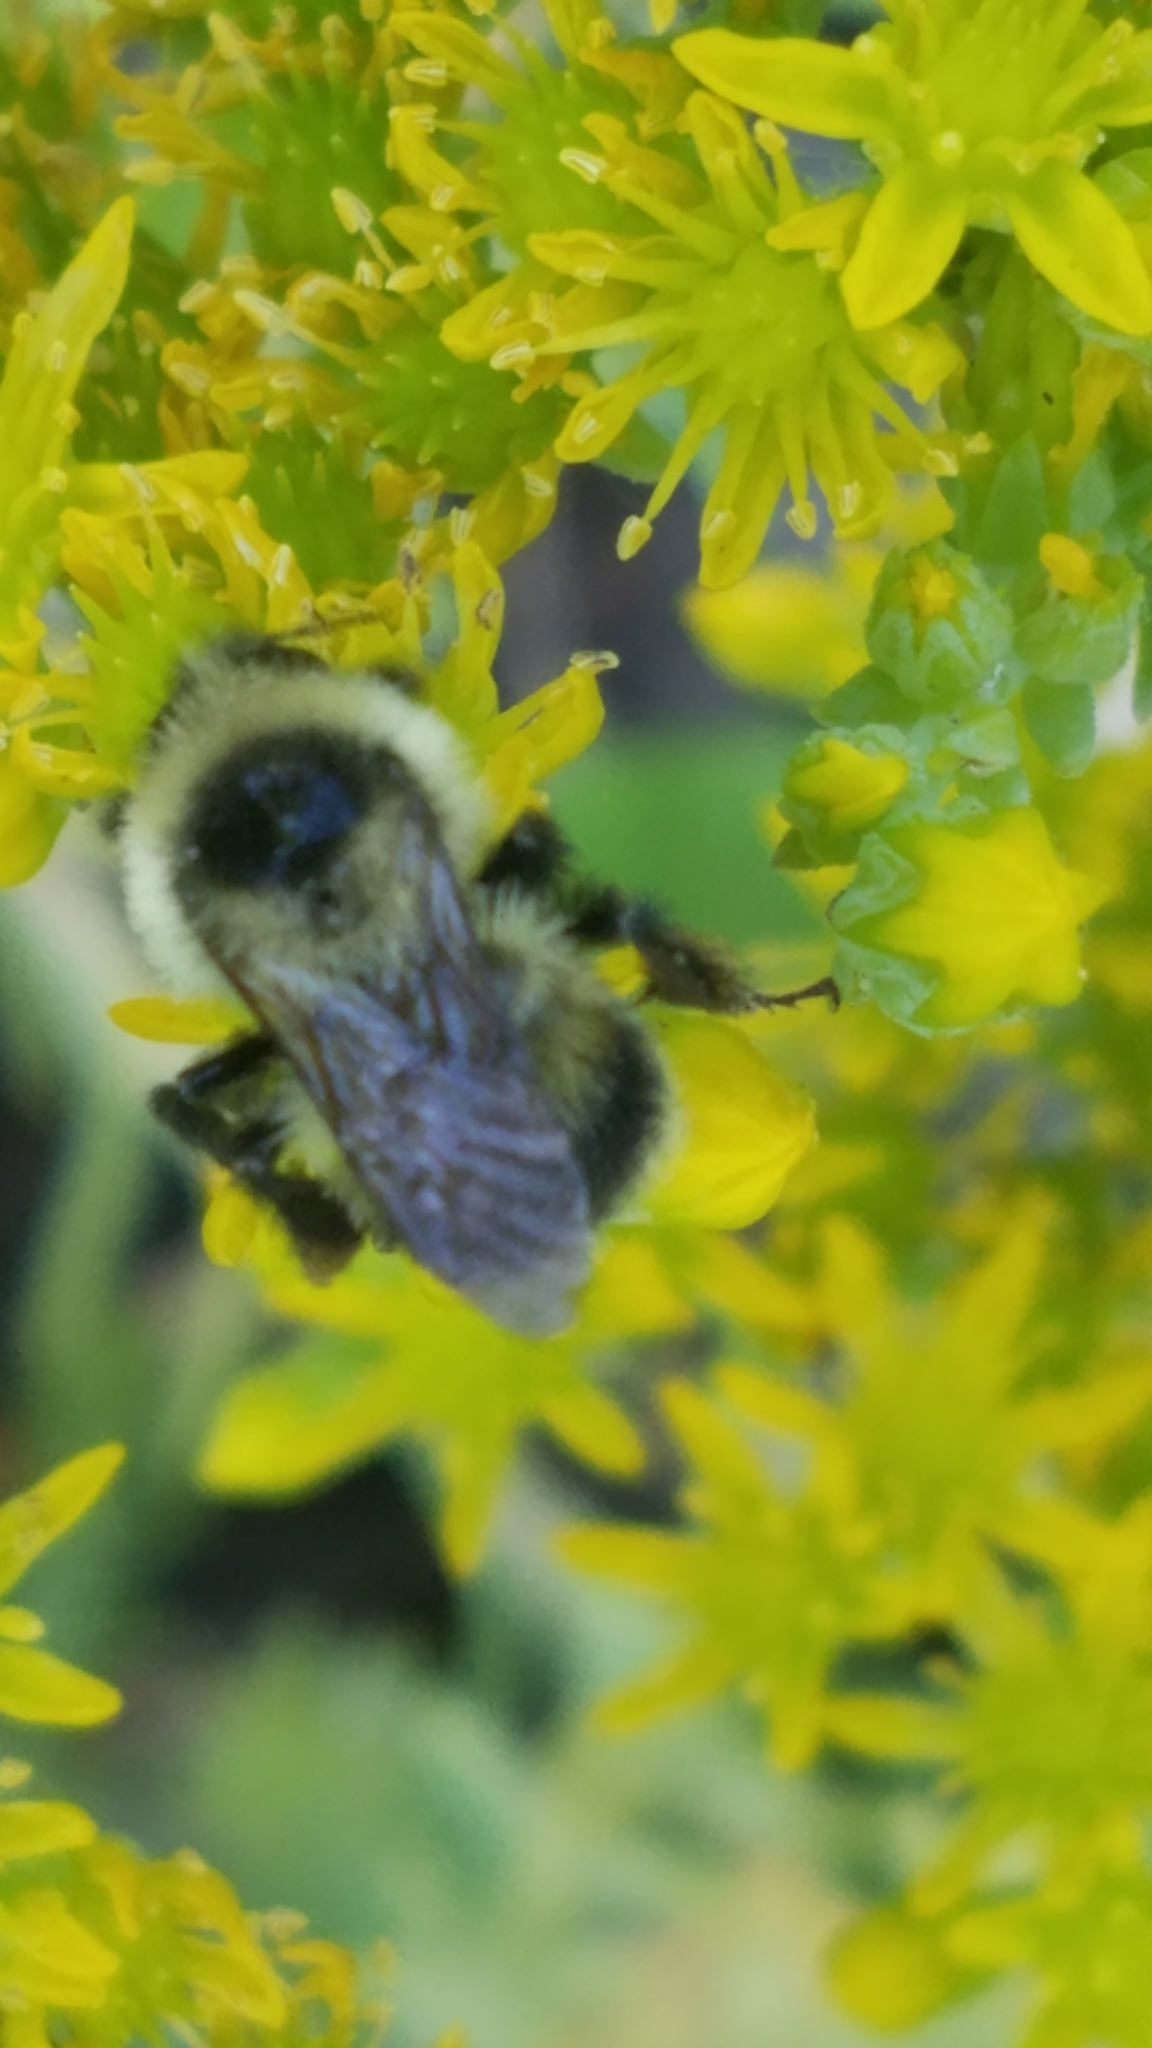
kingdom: Animalia
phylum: Arthropoda
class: Insecta
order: Hymenoptera
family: Apidae
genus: Bombus
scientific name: Bombus rufocinctus
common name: Red-belted bumble bee
